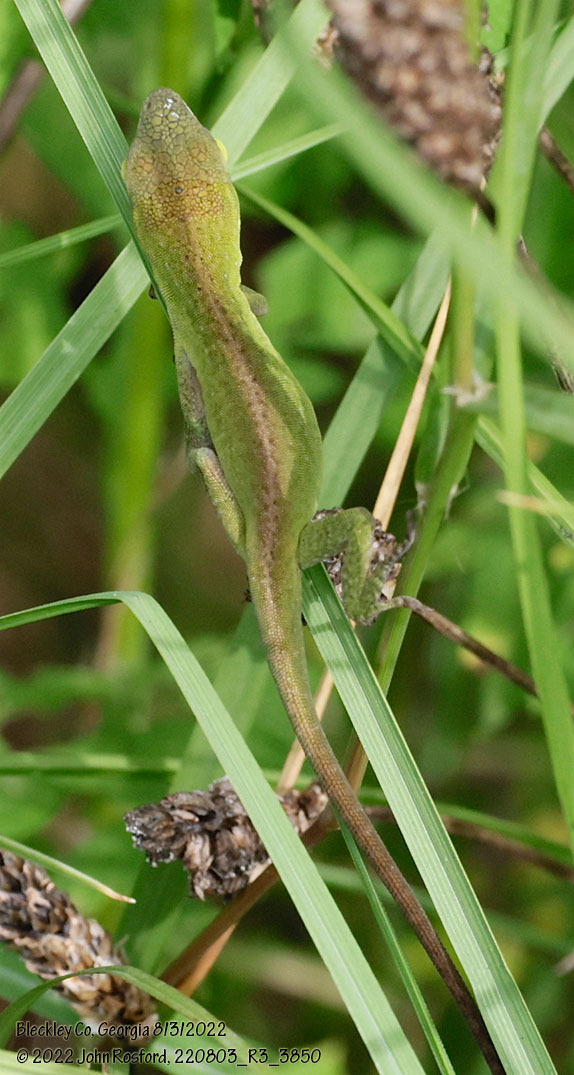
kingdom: Animalia
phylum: Chordata
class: Squamata
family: Dactyloidae
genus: Anolis
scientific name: Anolis carolinensis
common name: Green anole
